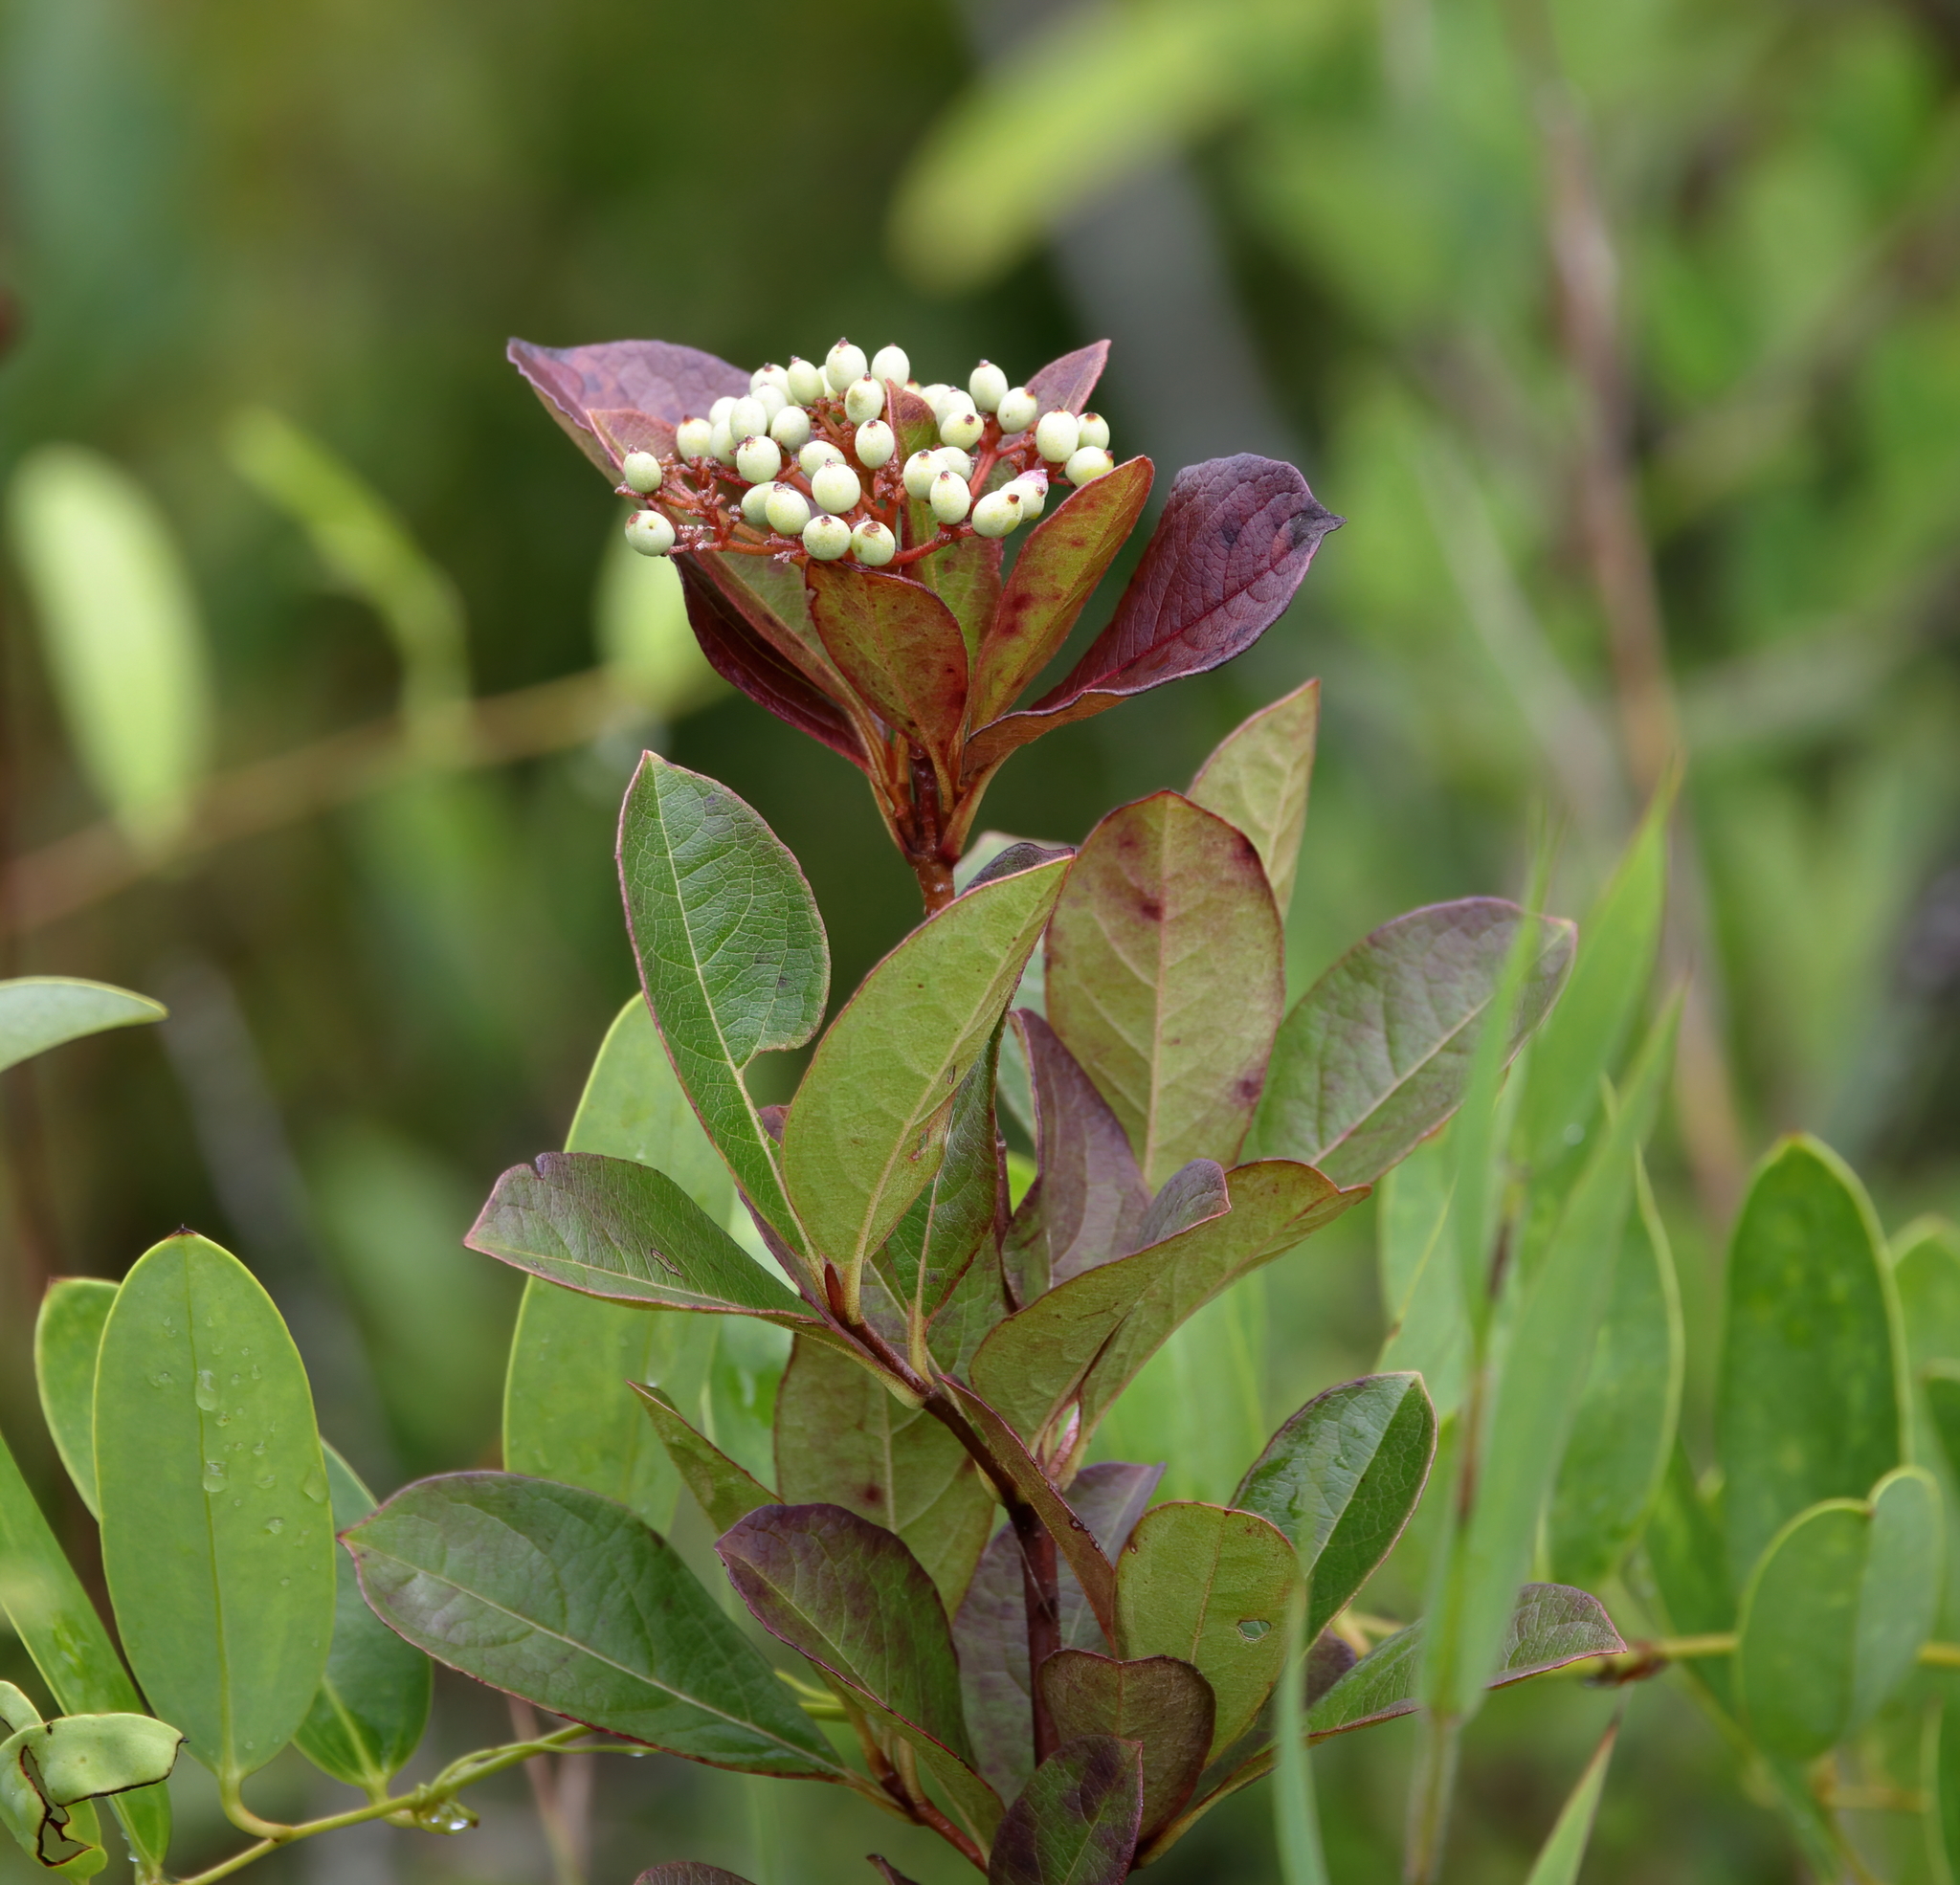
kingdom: Plantae
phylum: Tracheophyta
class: Magnoliopsida
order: Dipsacales
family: Viburnaceae
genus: Viburnum
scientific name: Viburnum nudum
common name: Possum haw
